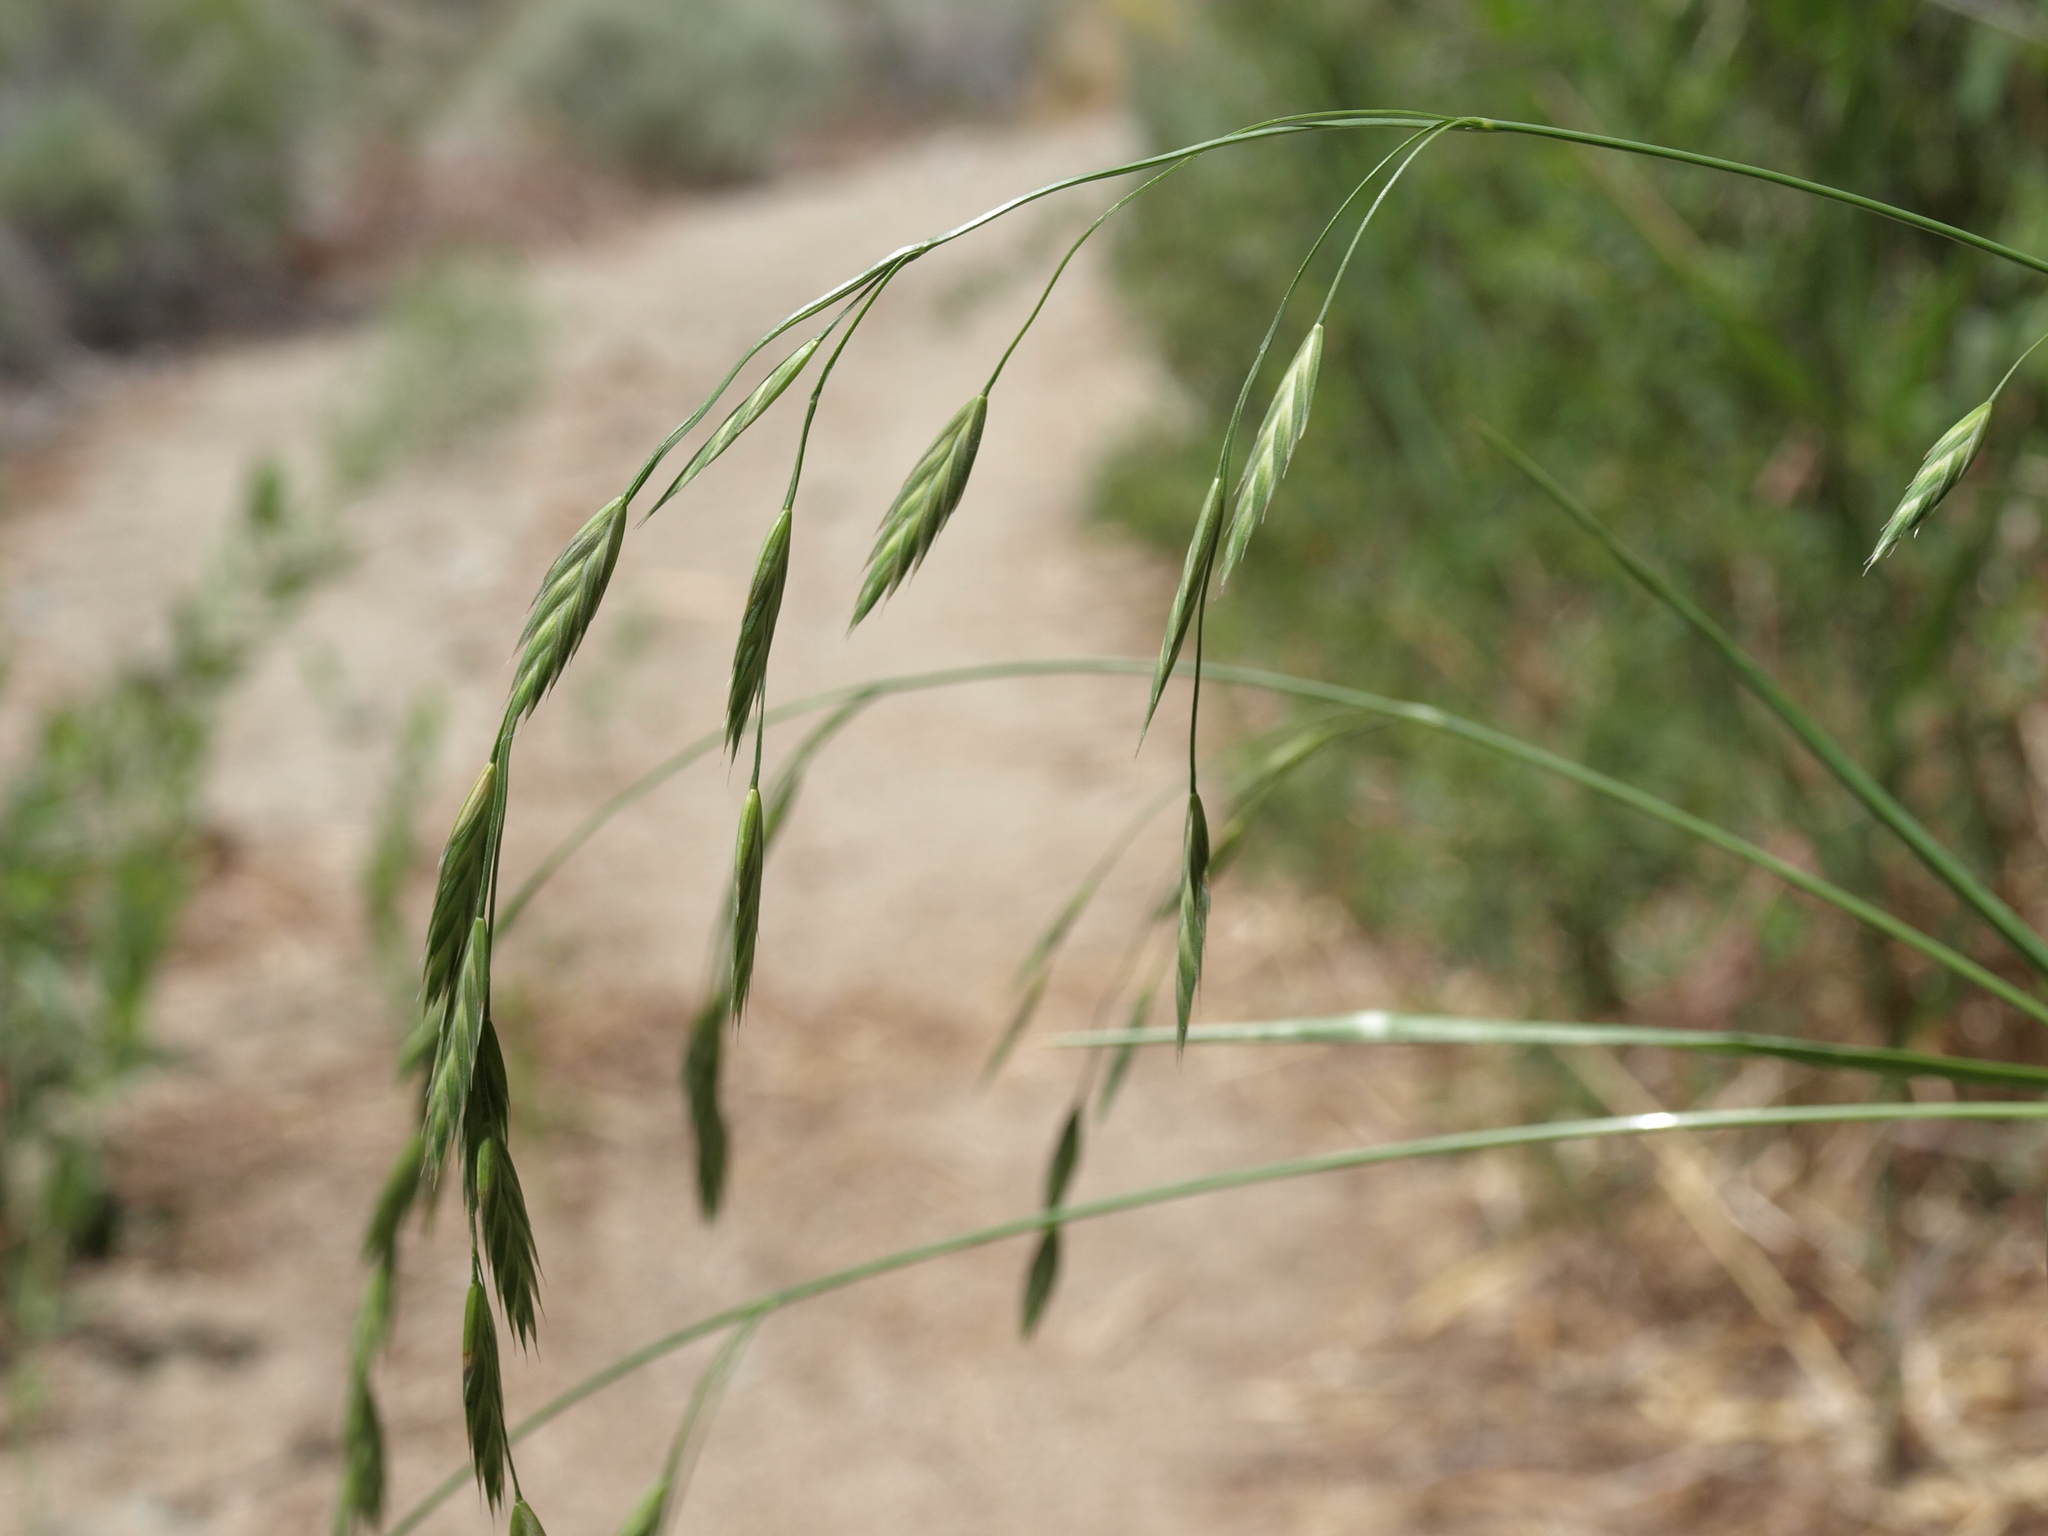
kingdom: Plantae
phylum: Tracheophyta
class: Liliopsida
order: Poales
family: Poaceae
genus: Bromus
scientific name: Bromus catharticus
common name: Rescuegrass
